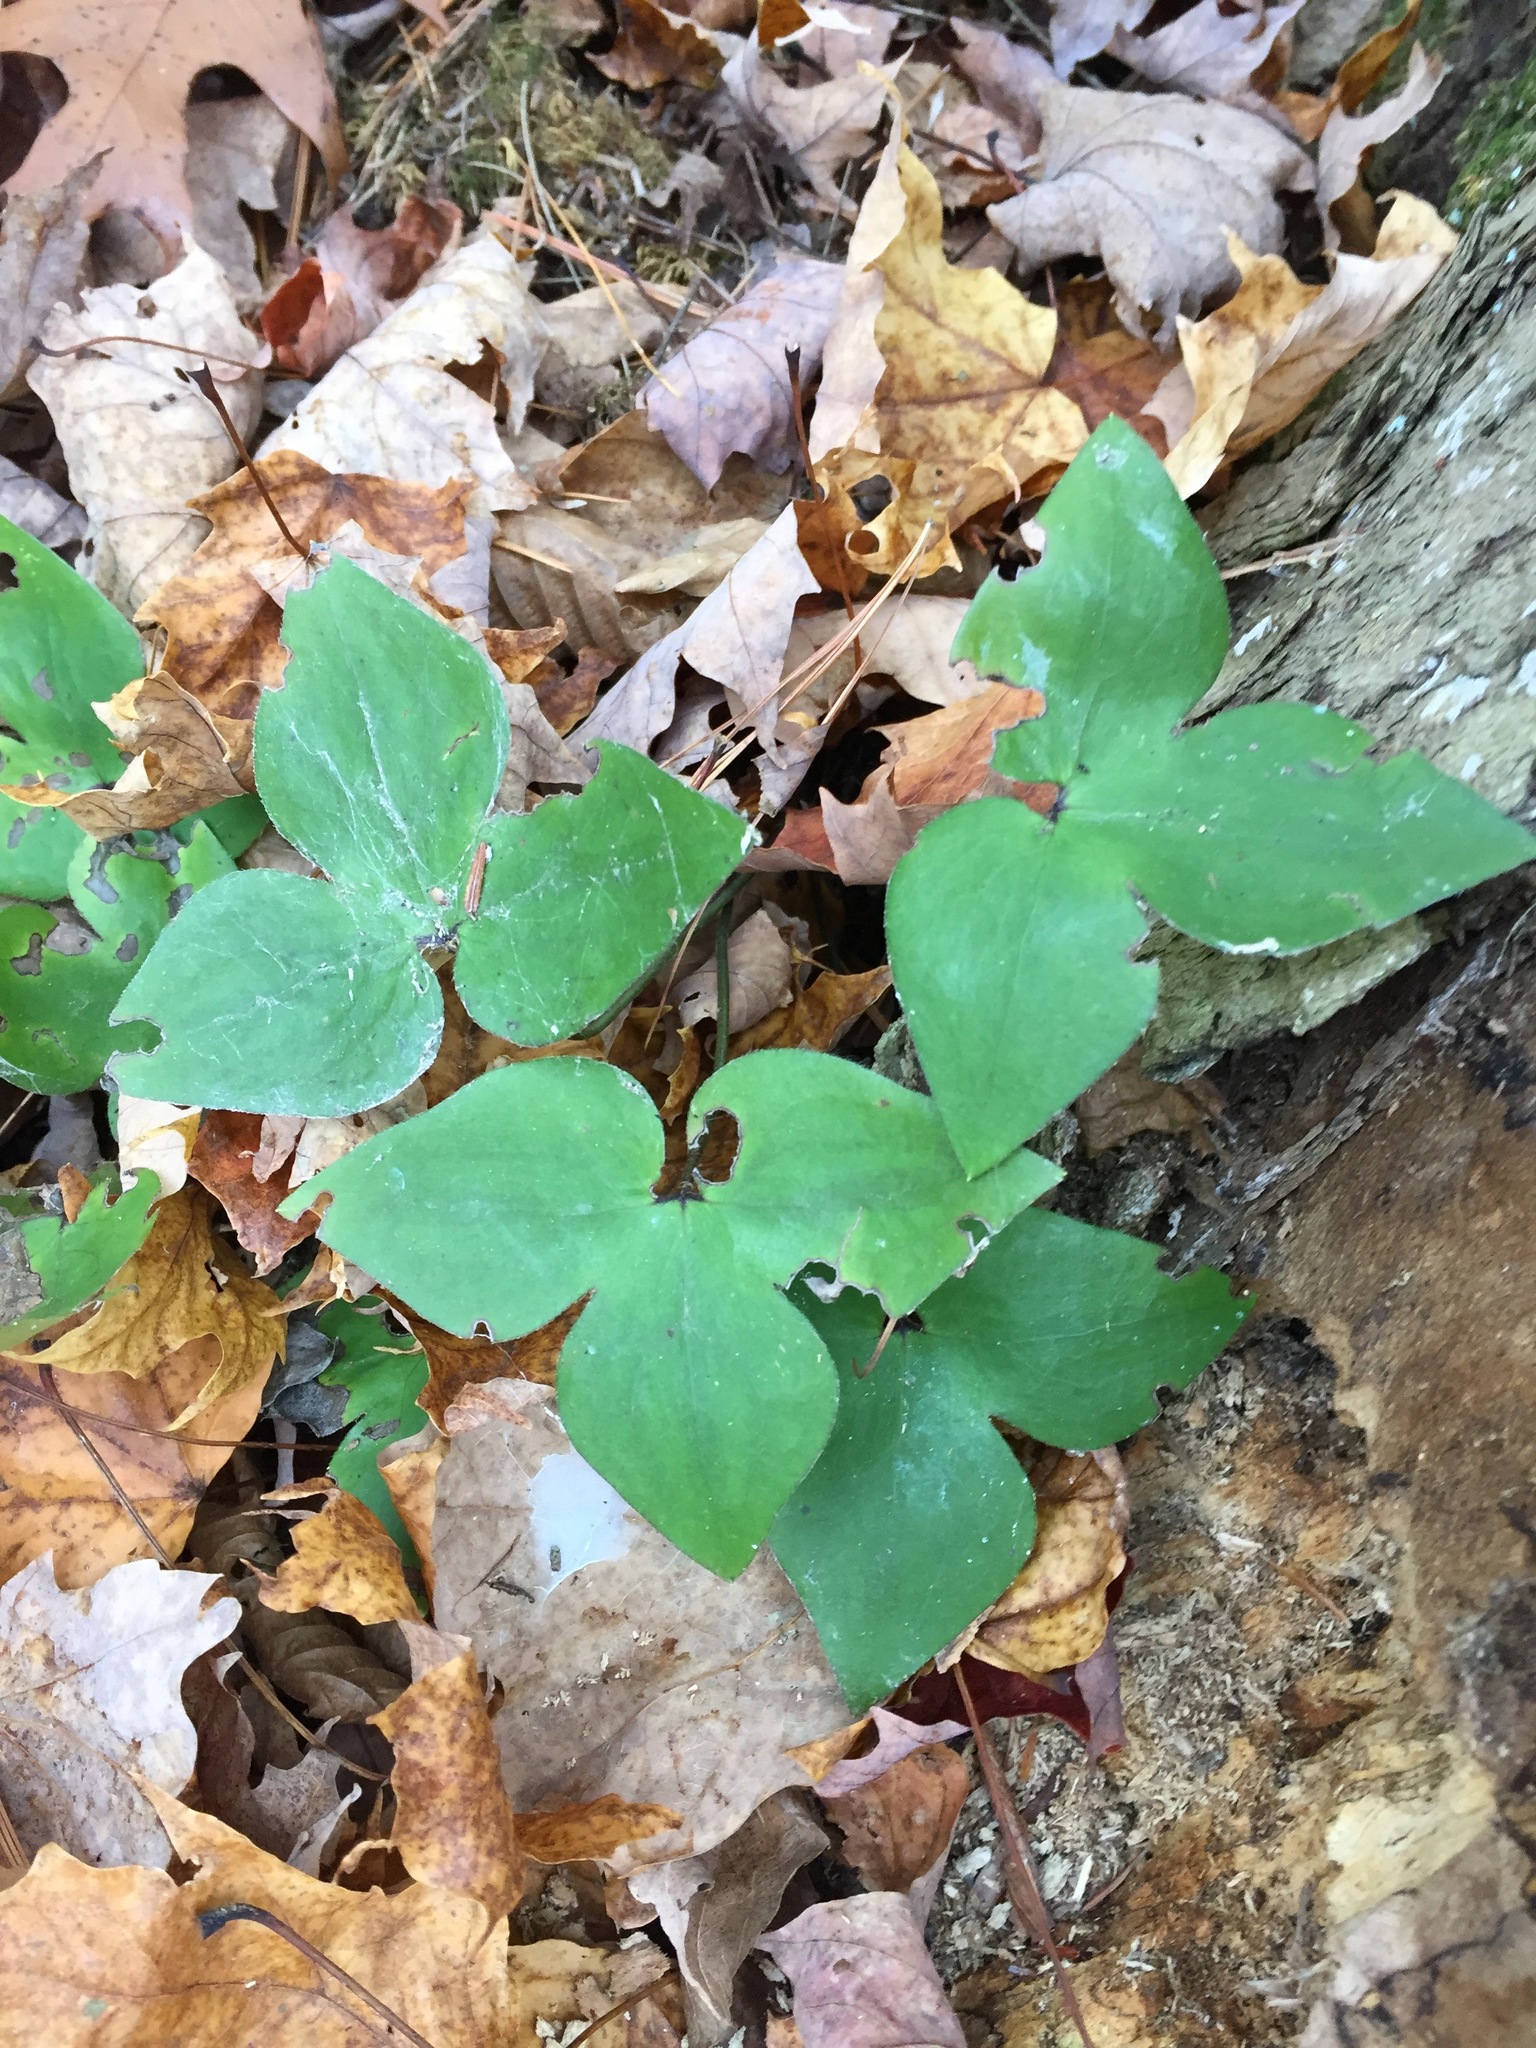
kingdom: Plantae
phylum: Tracheophyta
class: Magnoliopsida
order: Ranunculales
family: Ranunculaceae
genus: Hepatica
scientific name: Hepatica acutiloba
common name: Sharp-lobed hepatica
